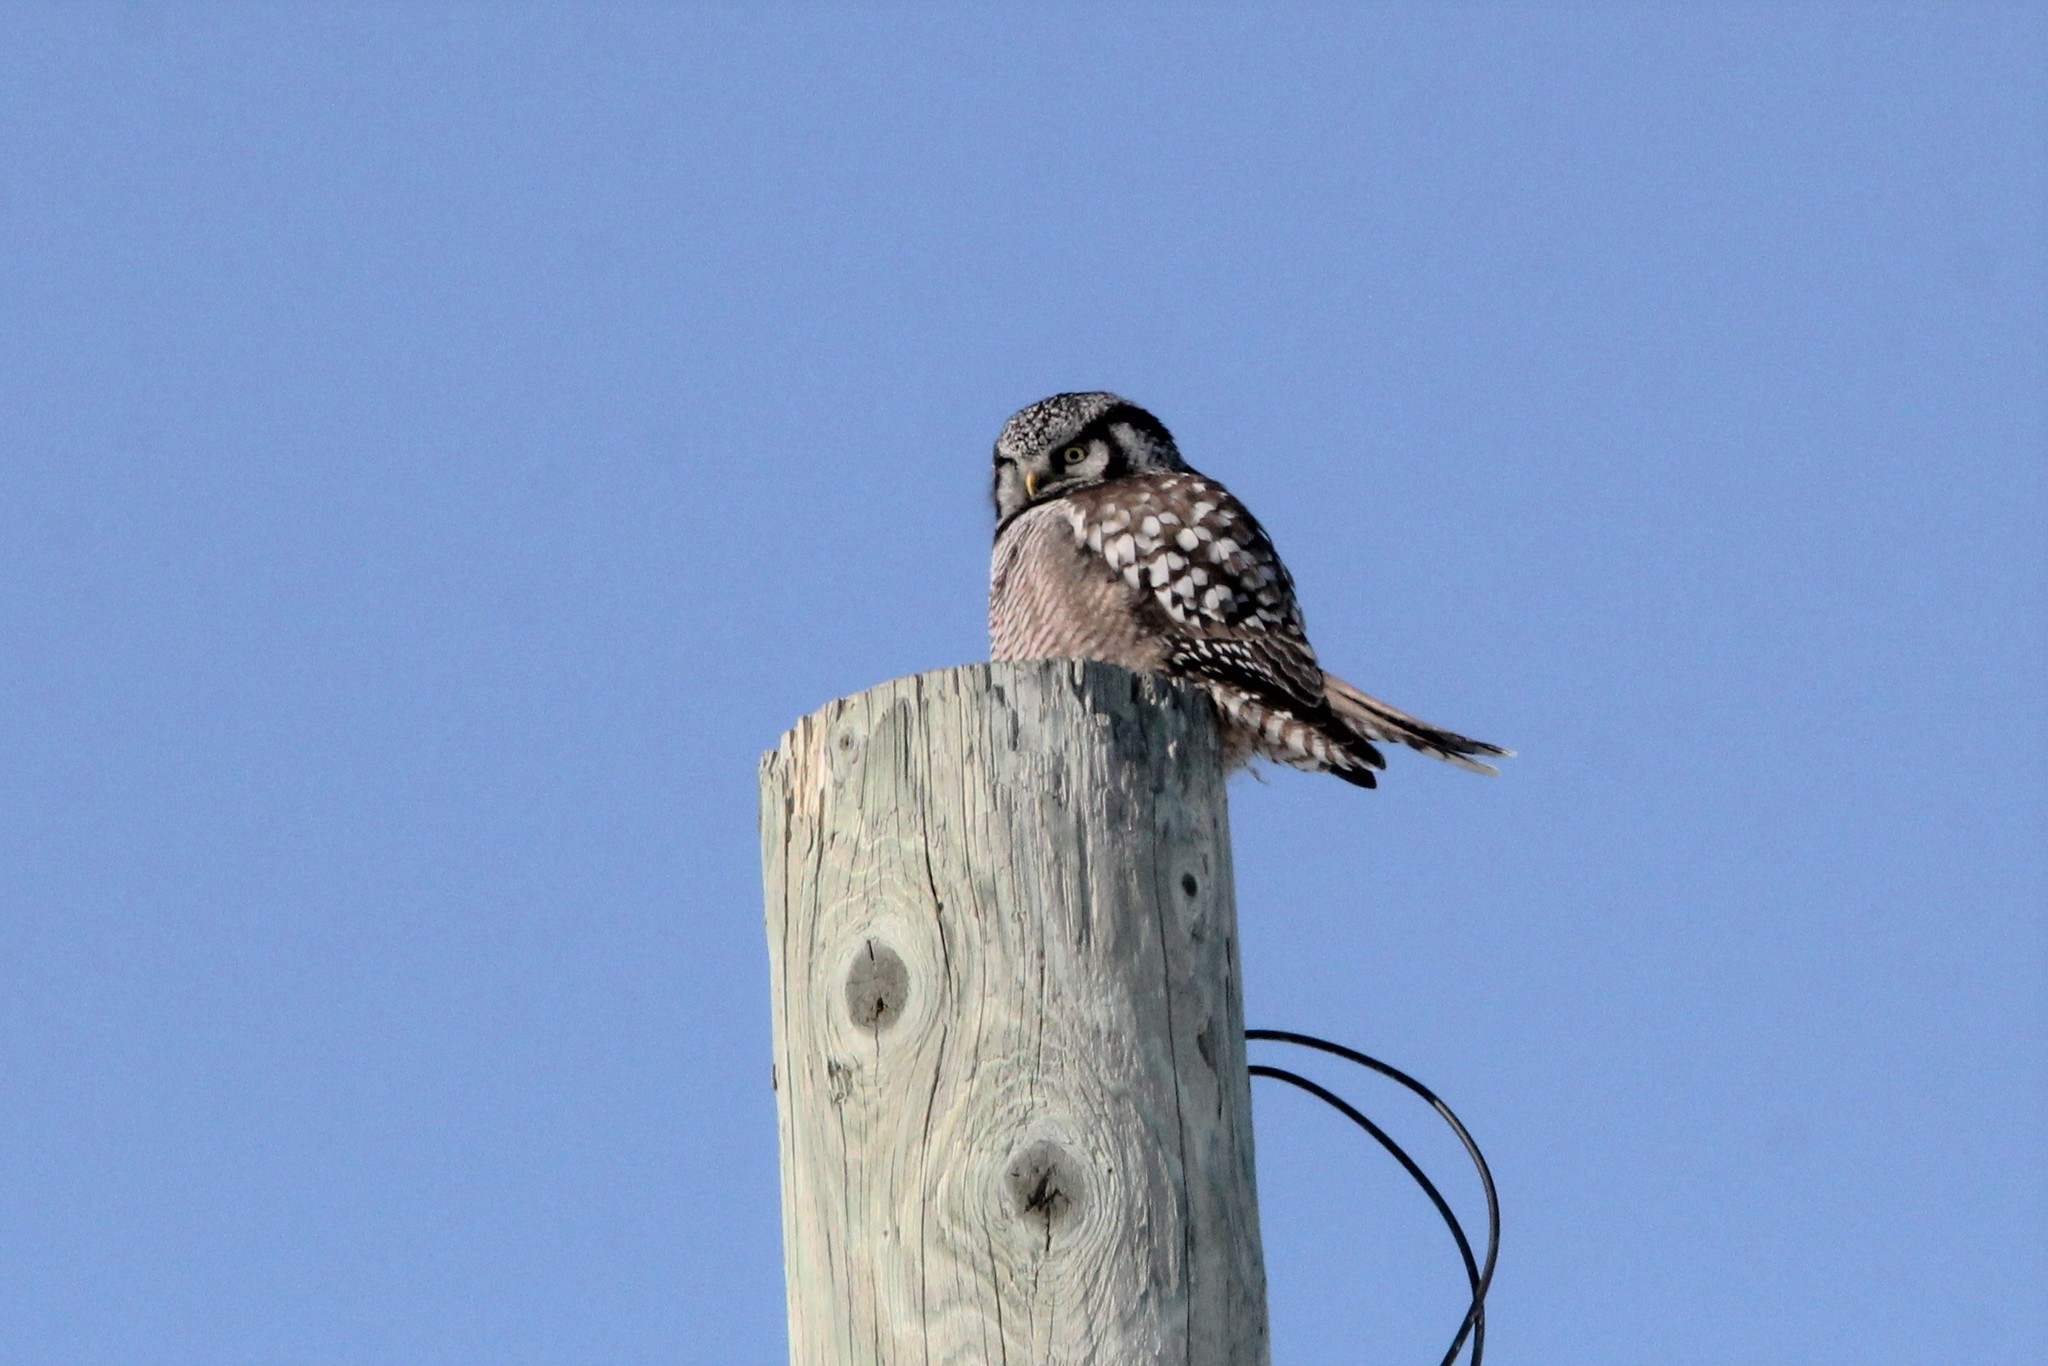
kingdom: Animalia
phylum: Chordata
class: Aves
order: Strigiformes
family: Strigidae
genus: Surnia
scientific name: Surnia ulula
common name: Northern hawk-owl
